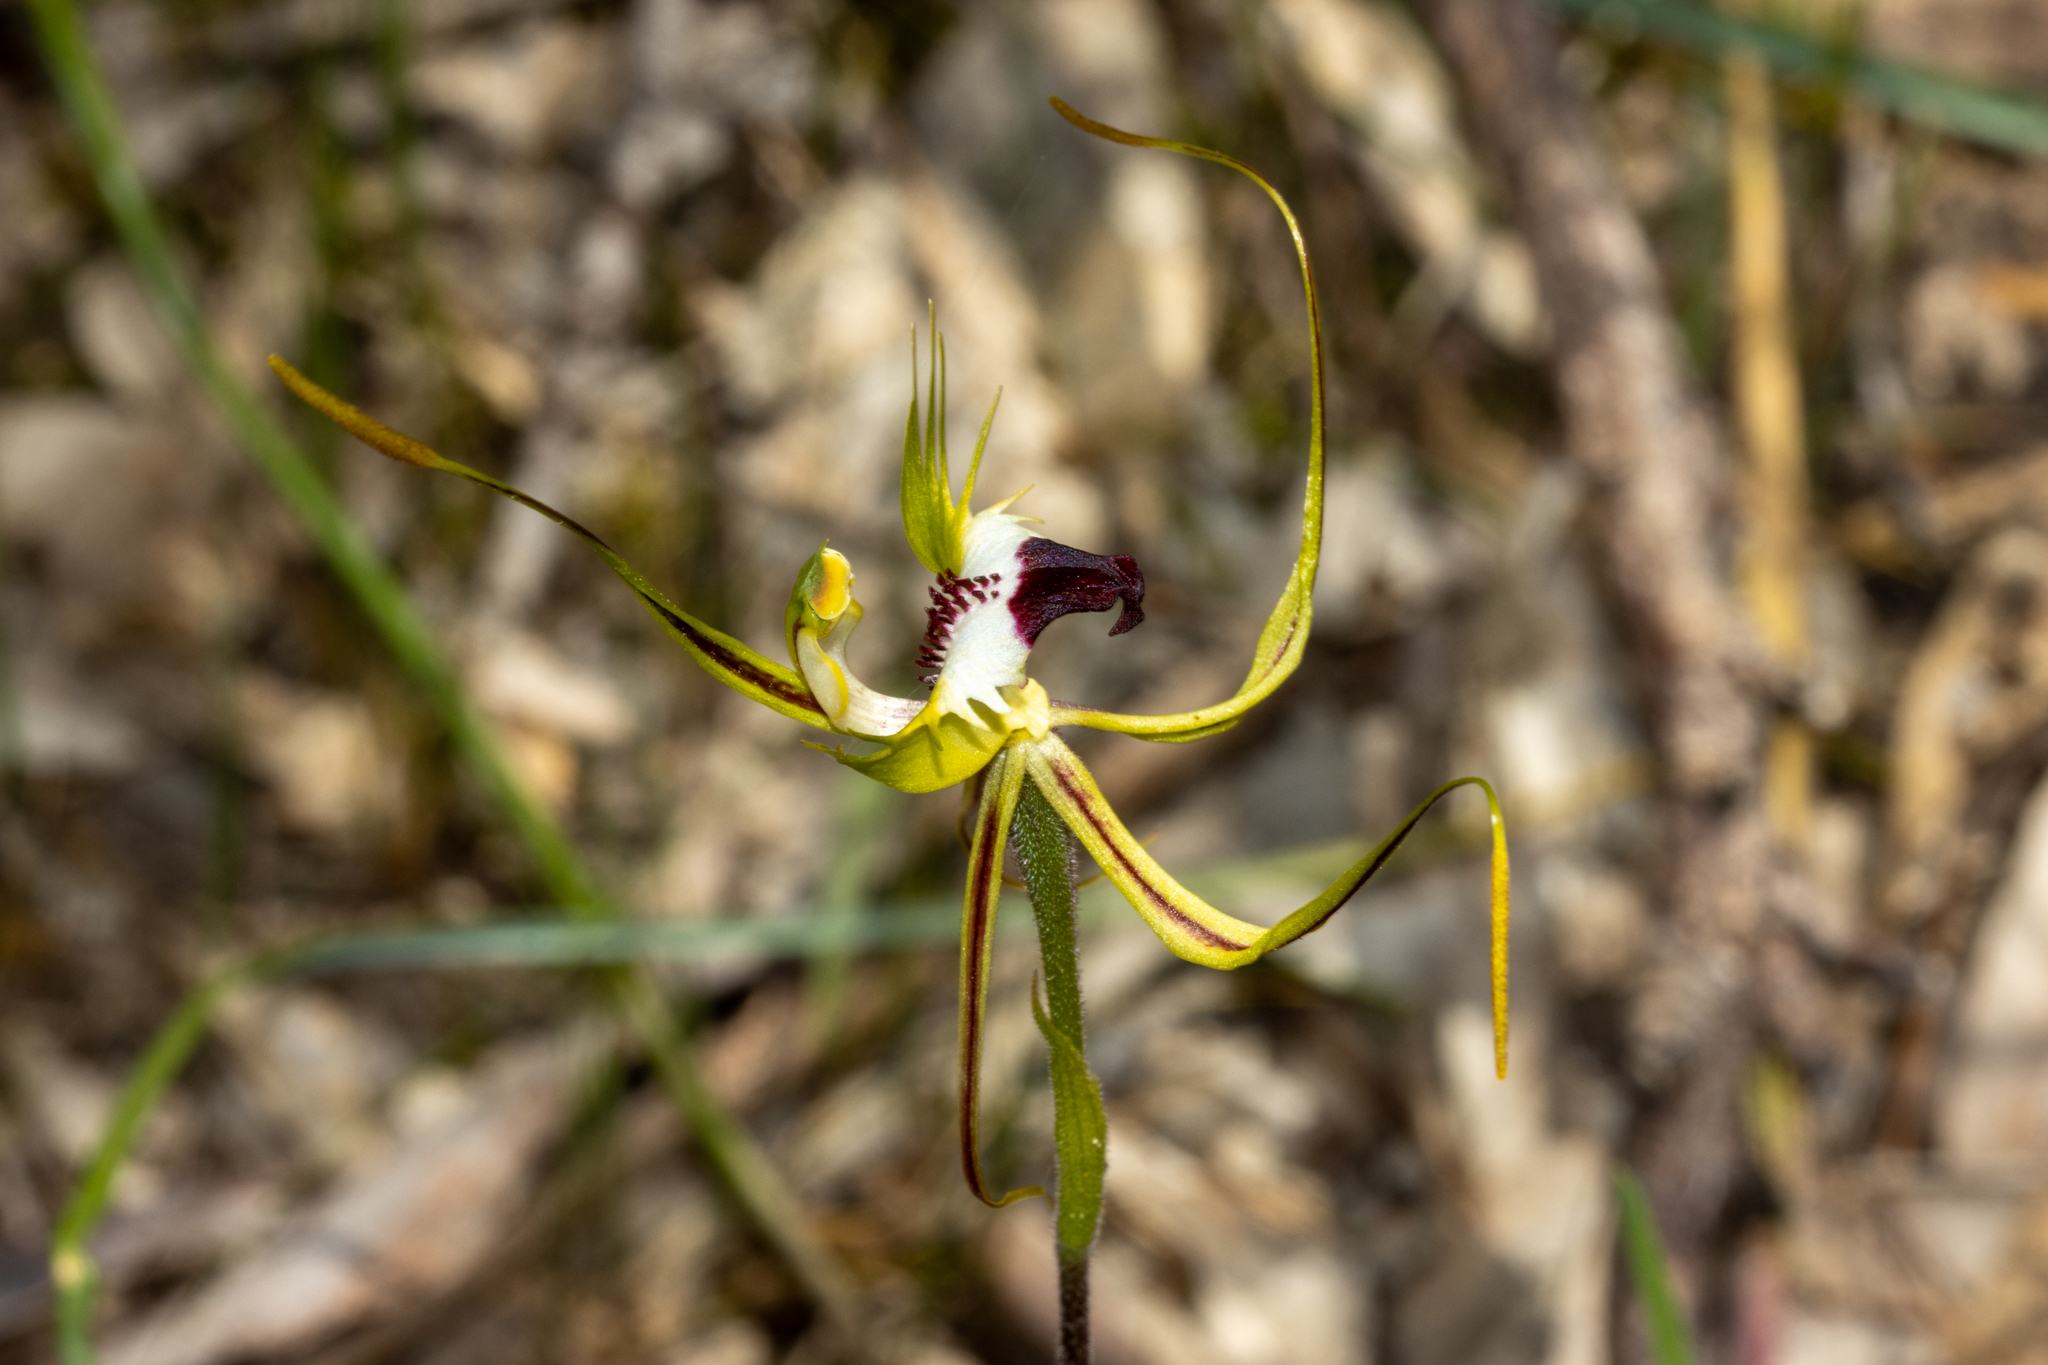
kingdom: Plantae
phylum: Tracheophyta
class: Liliopsida
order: Asparagales
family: Orchidaceae
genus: Caladenia
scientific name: Caladenia tentaculata
